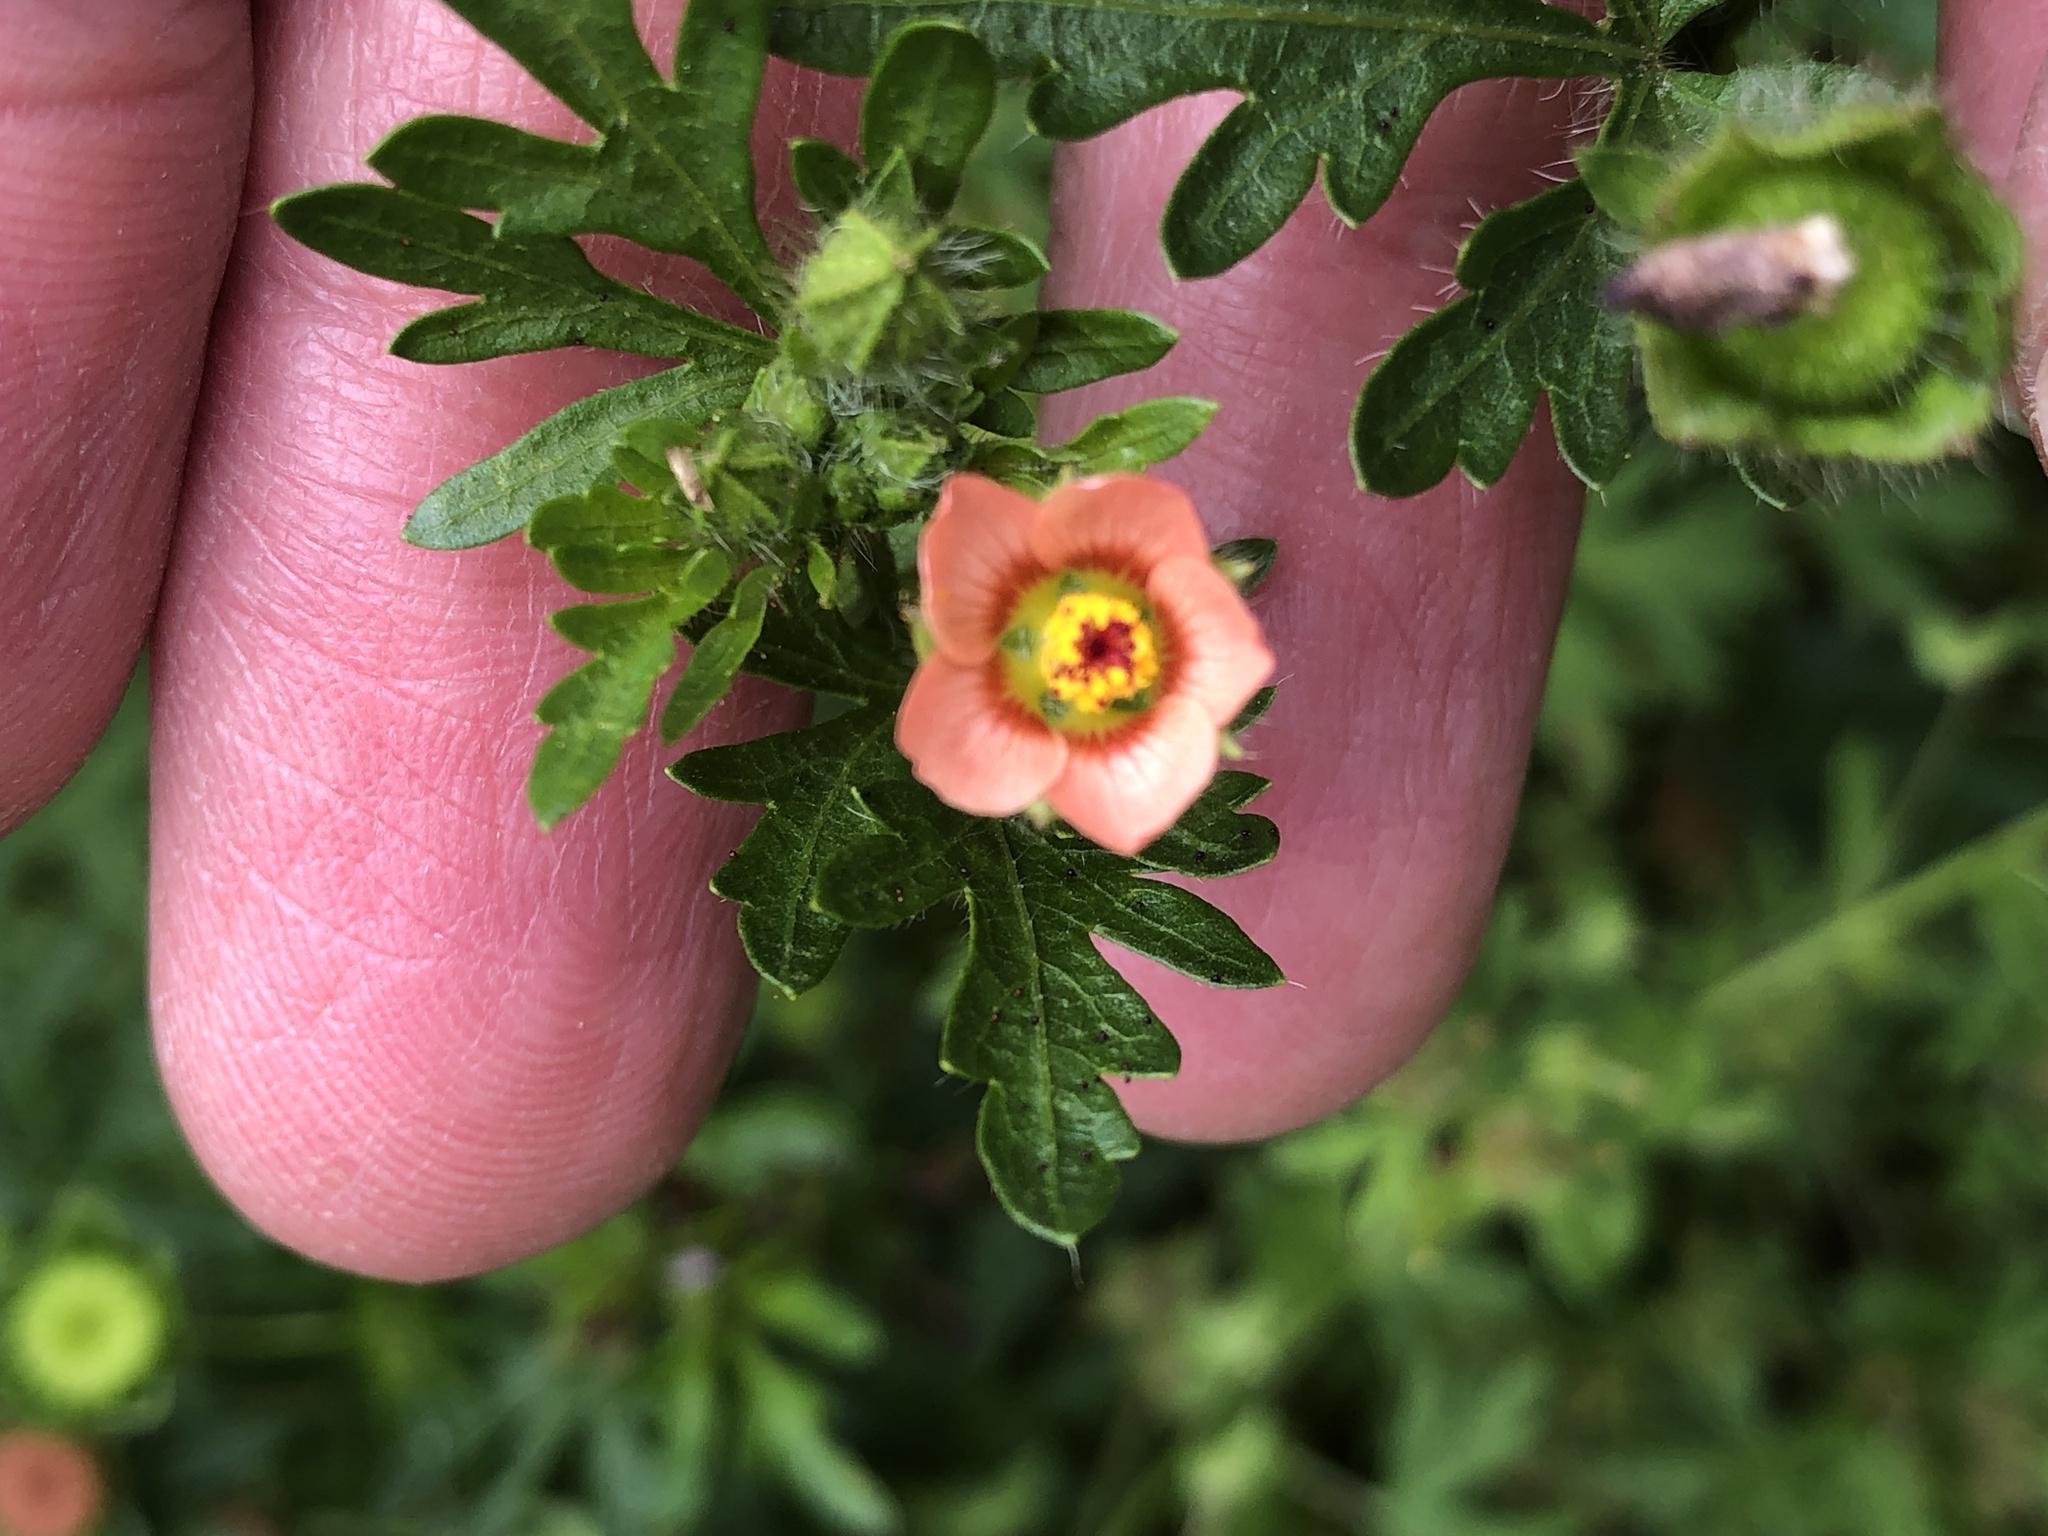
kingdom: Plantae
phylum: Tracheophyta
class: Magnoliopsida
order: Malvales
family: Malvaceae
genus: Modiola
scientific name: Modiola caroliniana
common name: Carolina bristlemallow
